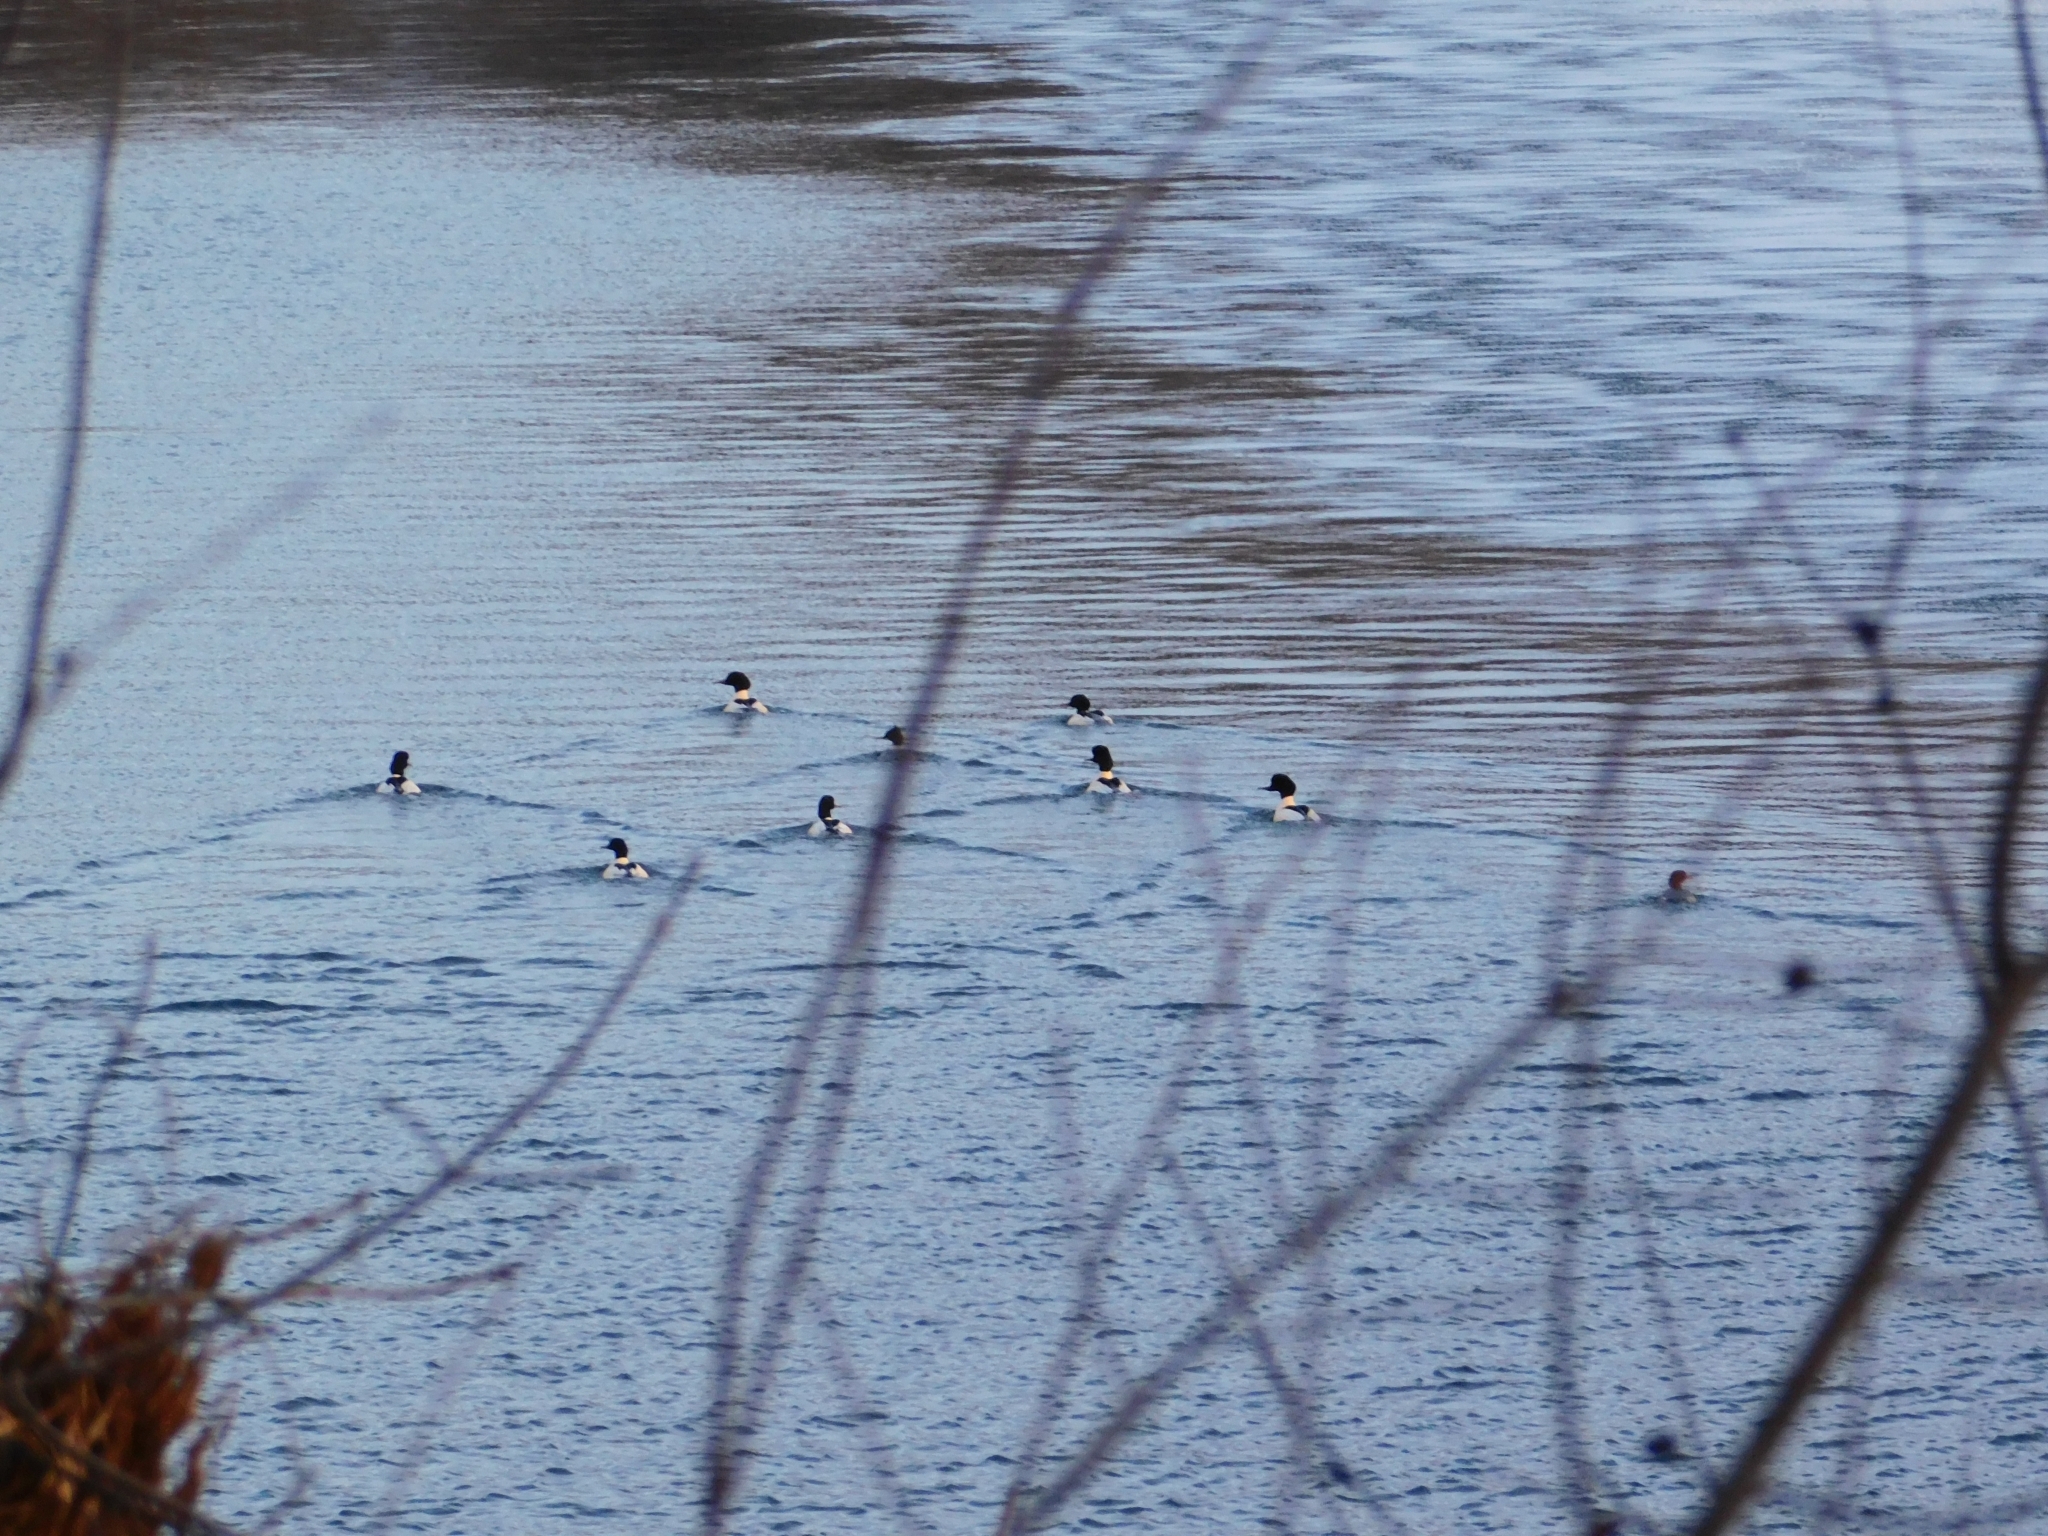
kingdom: Animalia
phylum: Chordata
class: Aves
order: Anseriformes
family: Anatidae
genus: Mergus
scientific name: Mergus merganser
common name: Common merganser
